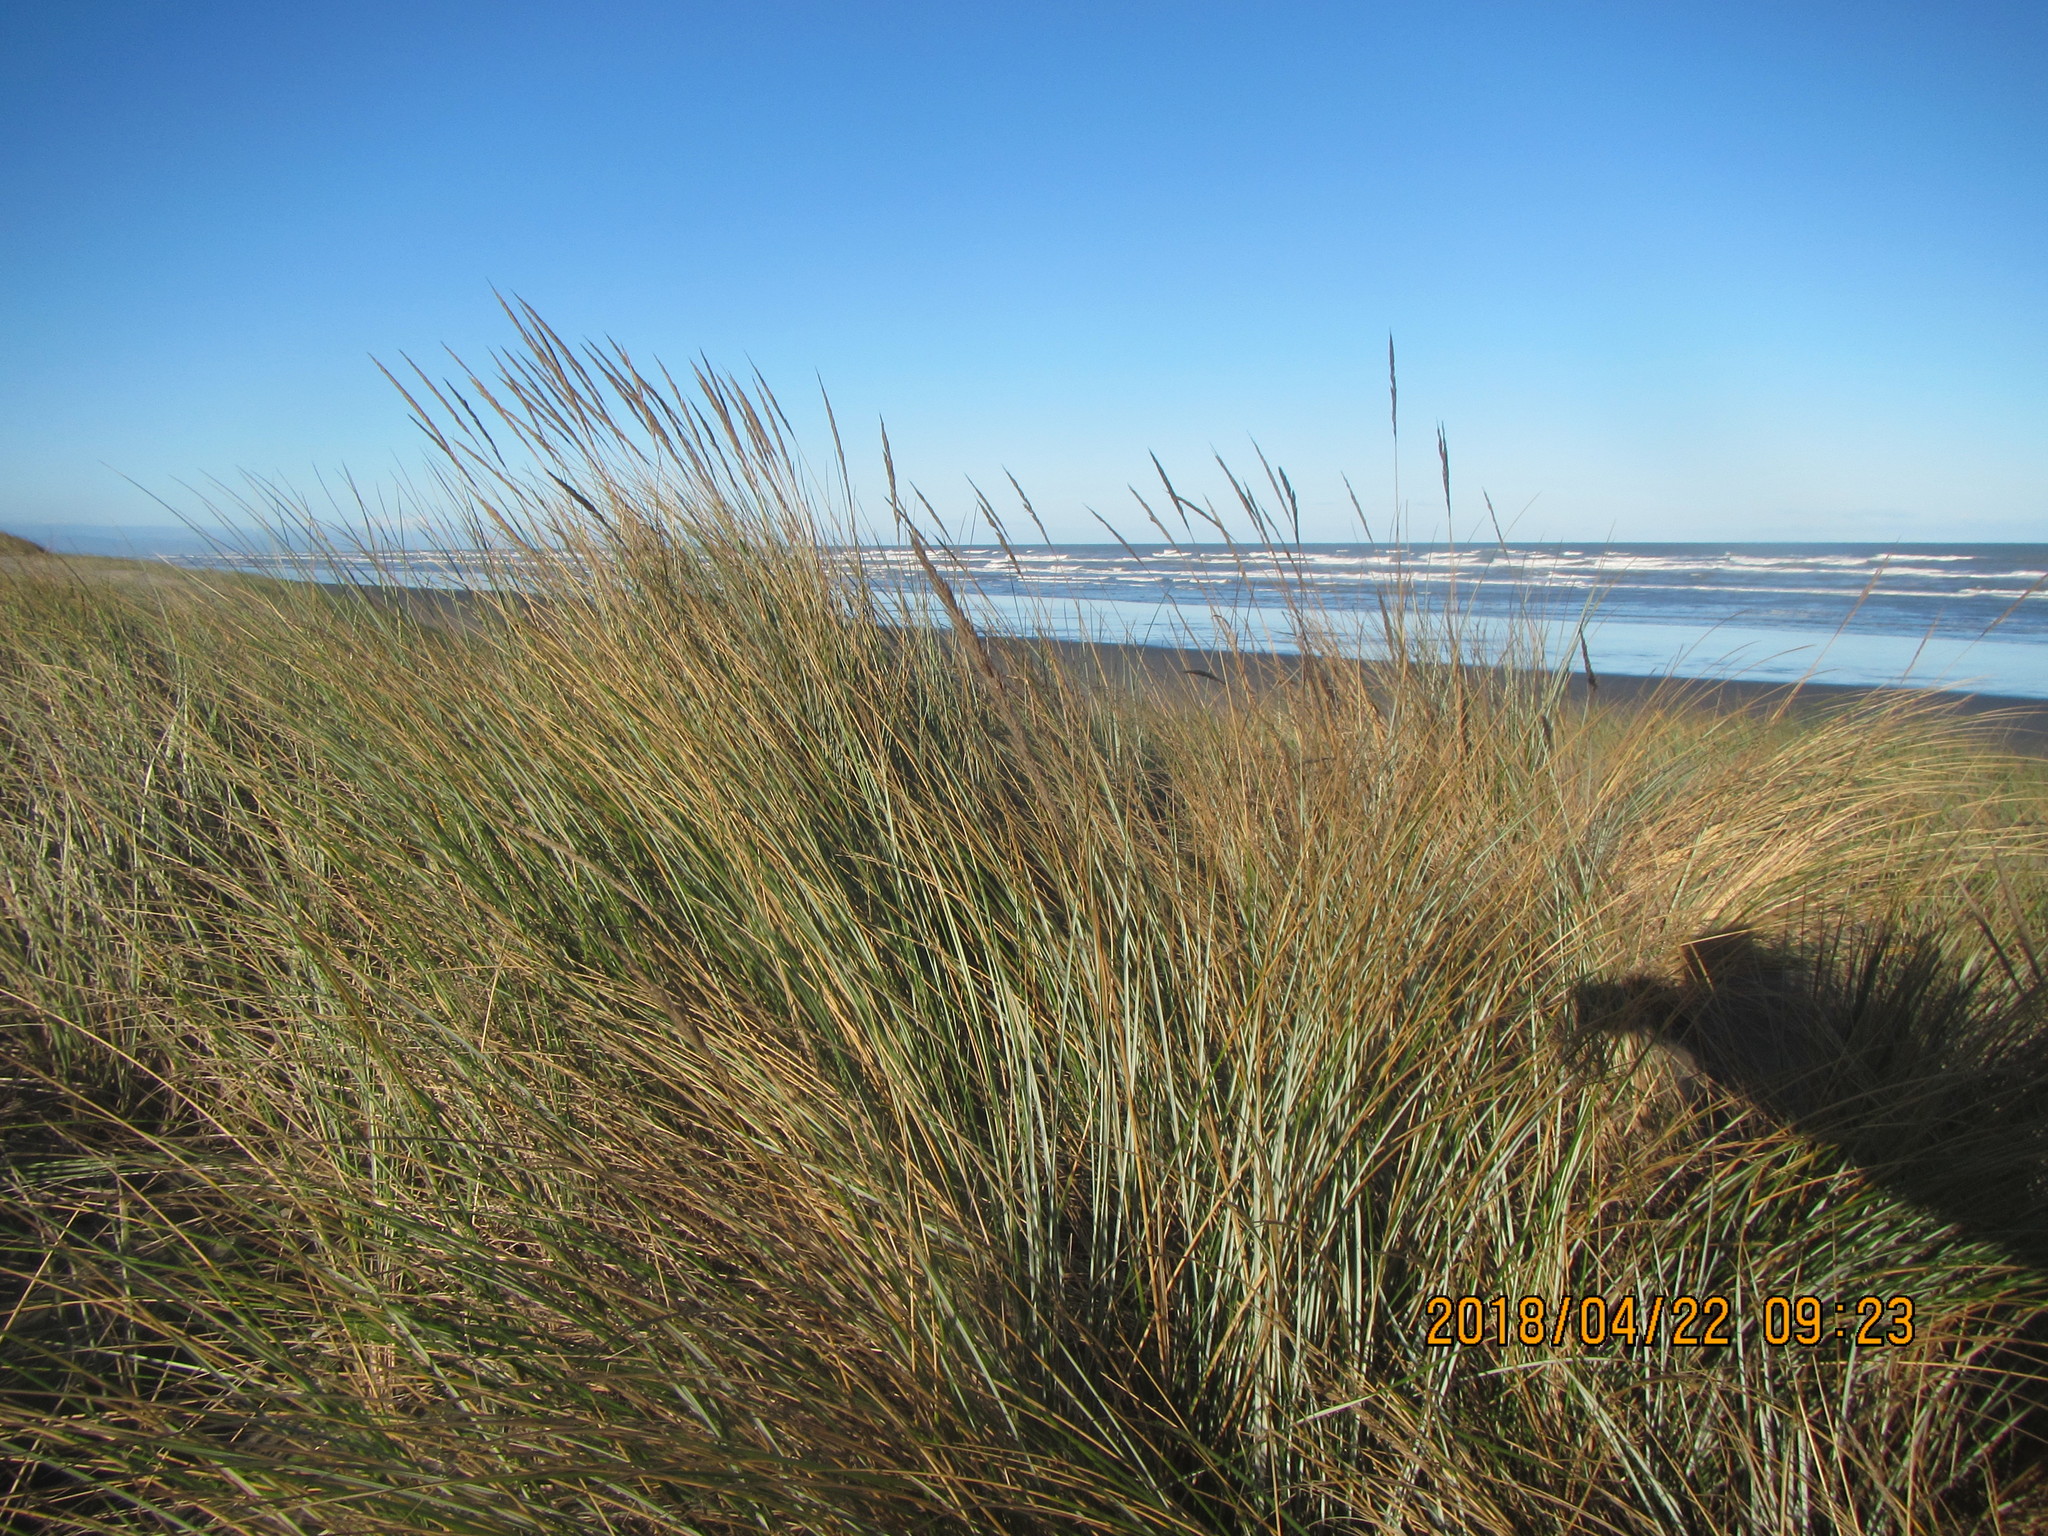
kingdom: Plantae
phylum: Tracheophyta
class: Liliopsida
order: Poales
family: Poaceae
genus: Calamagrostis
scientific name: Calamagrostis arenaria
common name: European beachgrass
